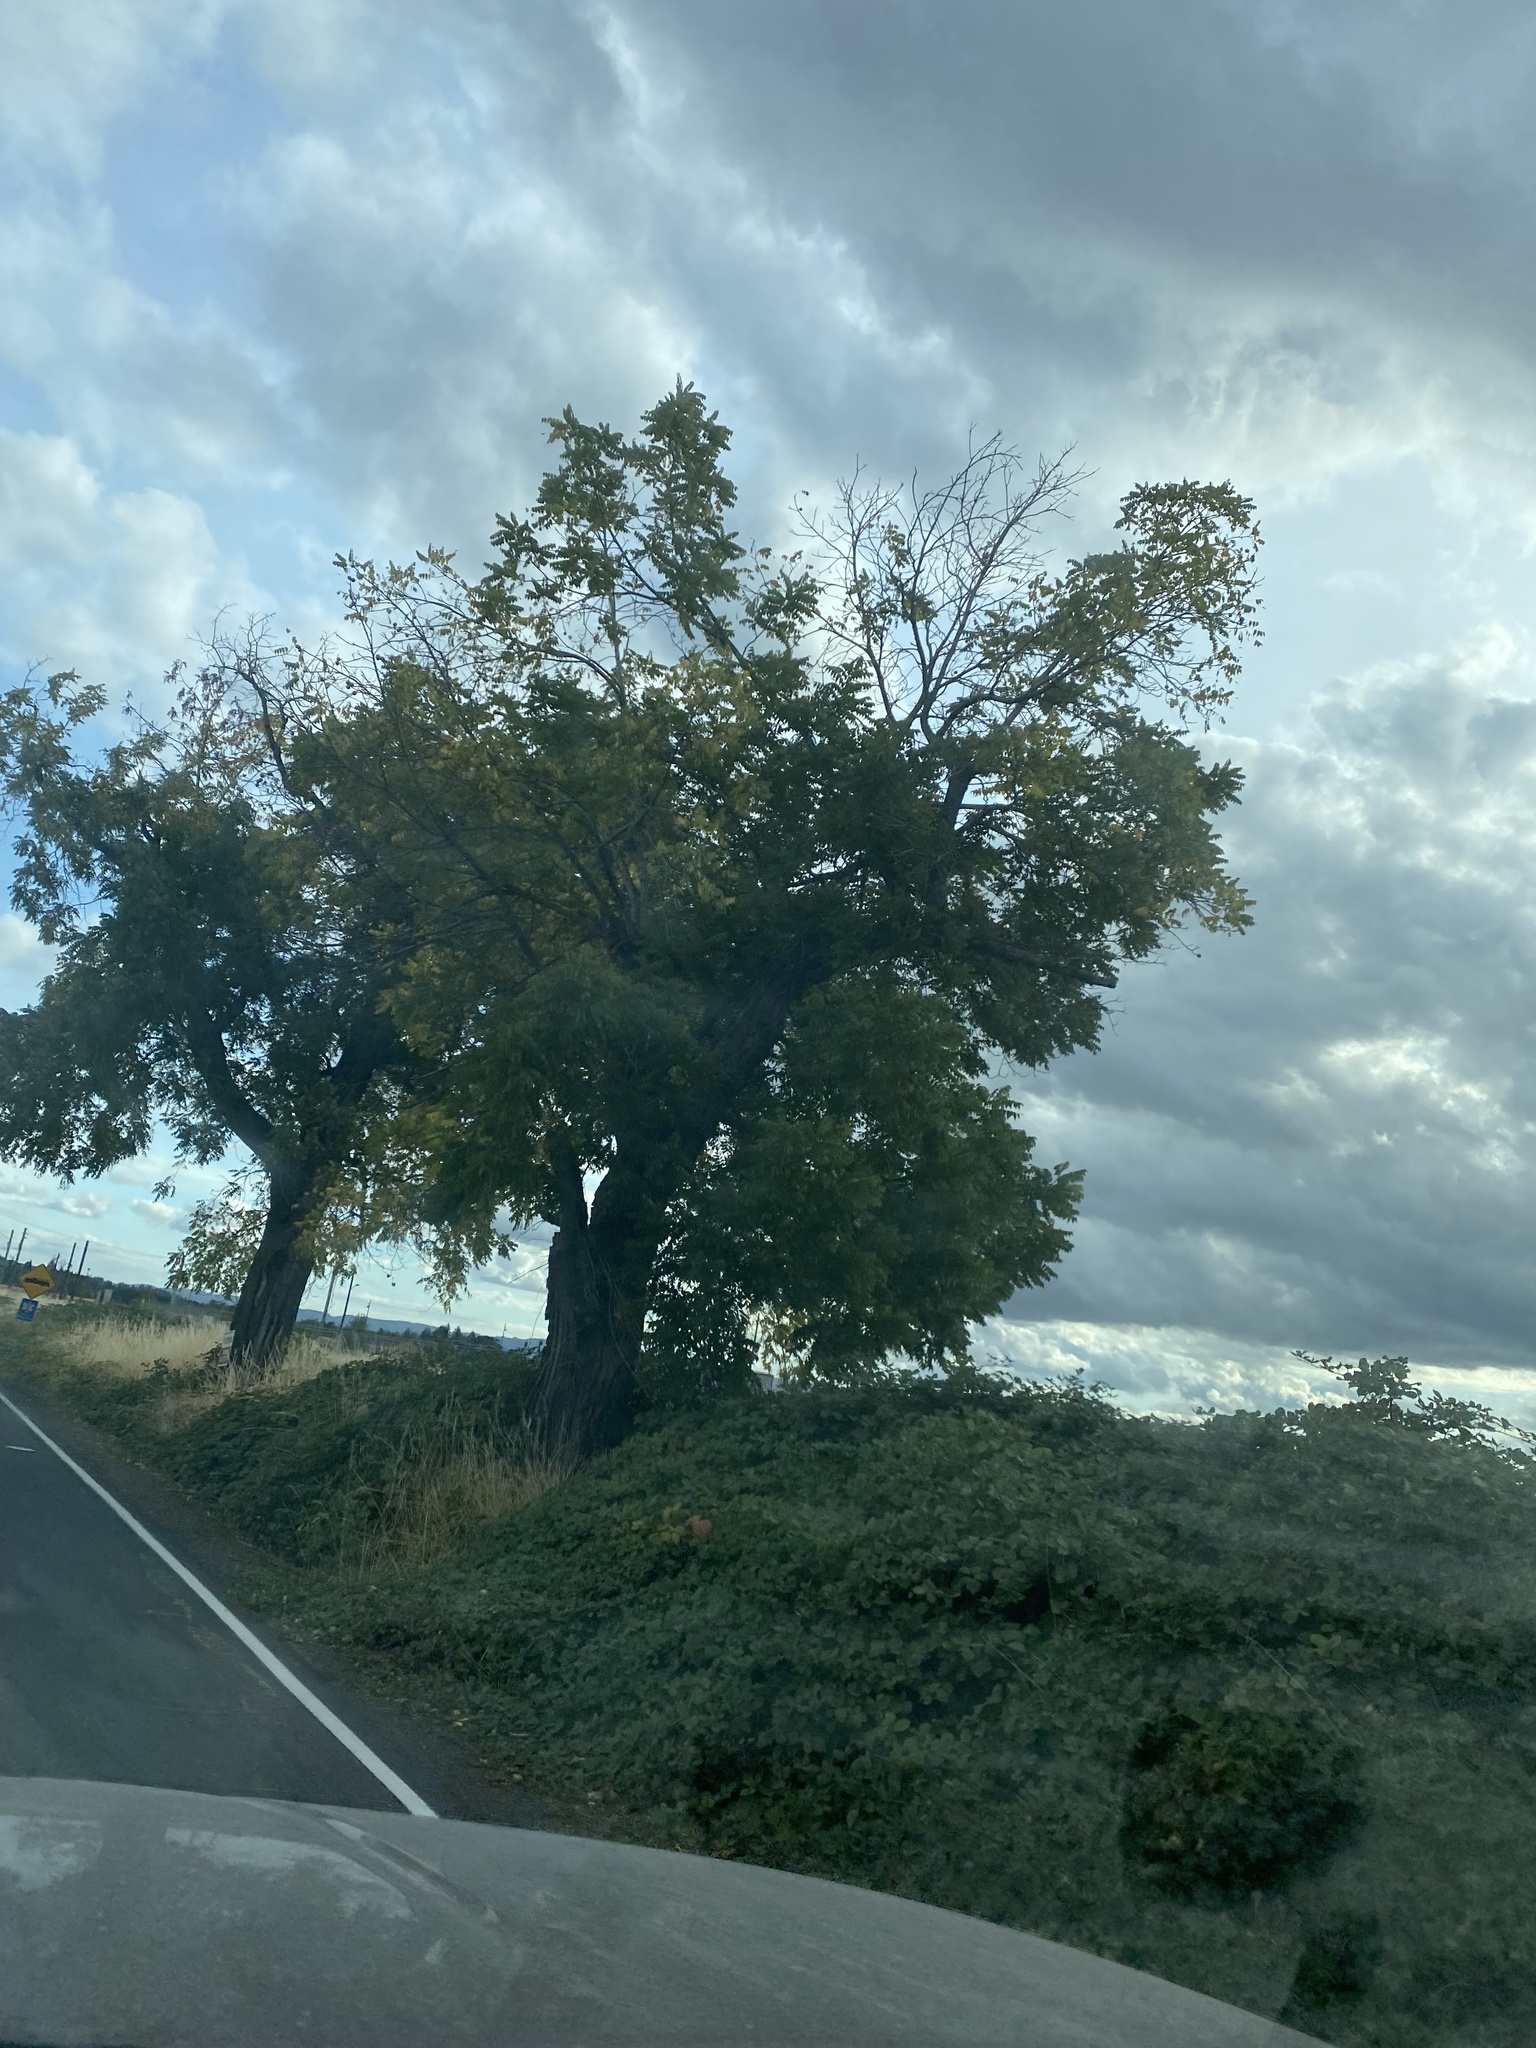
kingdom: Plantae
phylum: Tracheophyta
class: Magnoliopsida
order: Fagales
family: Juglandaceae
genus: Juglans
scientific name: Juglans nigra
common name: Black walnut
